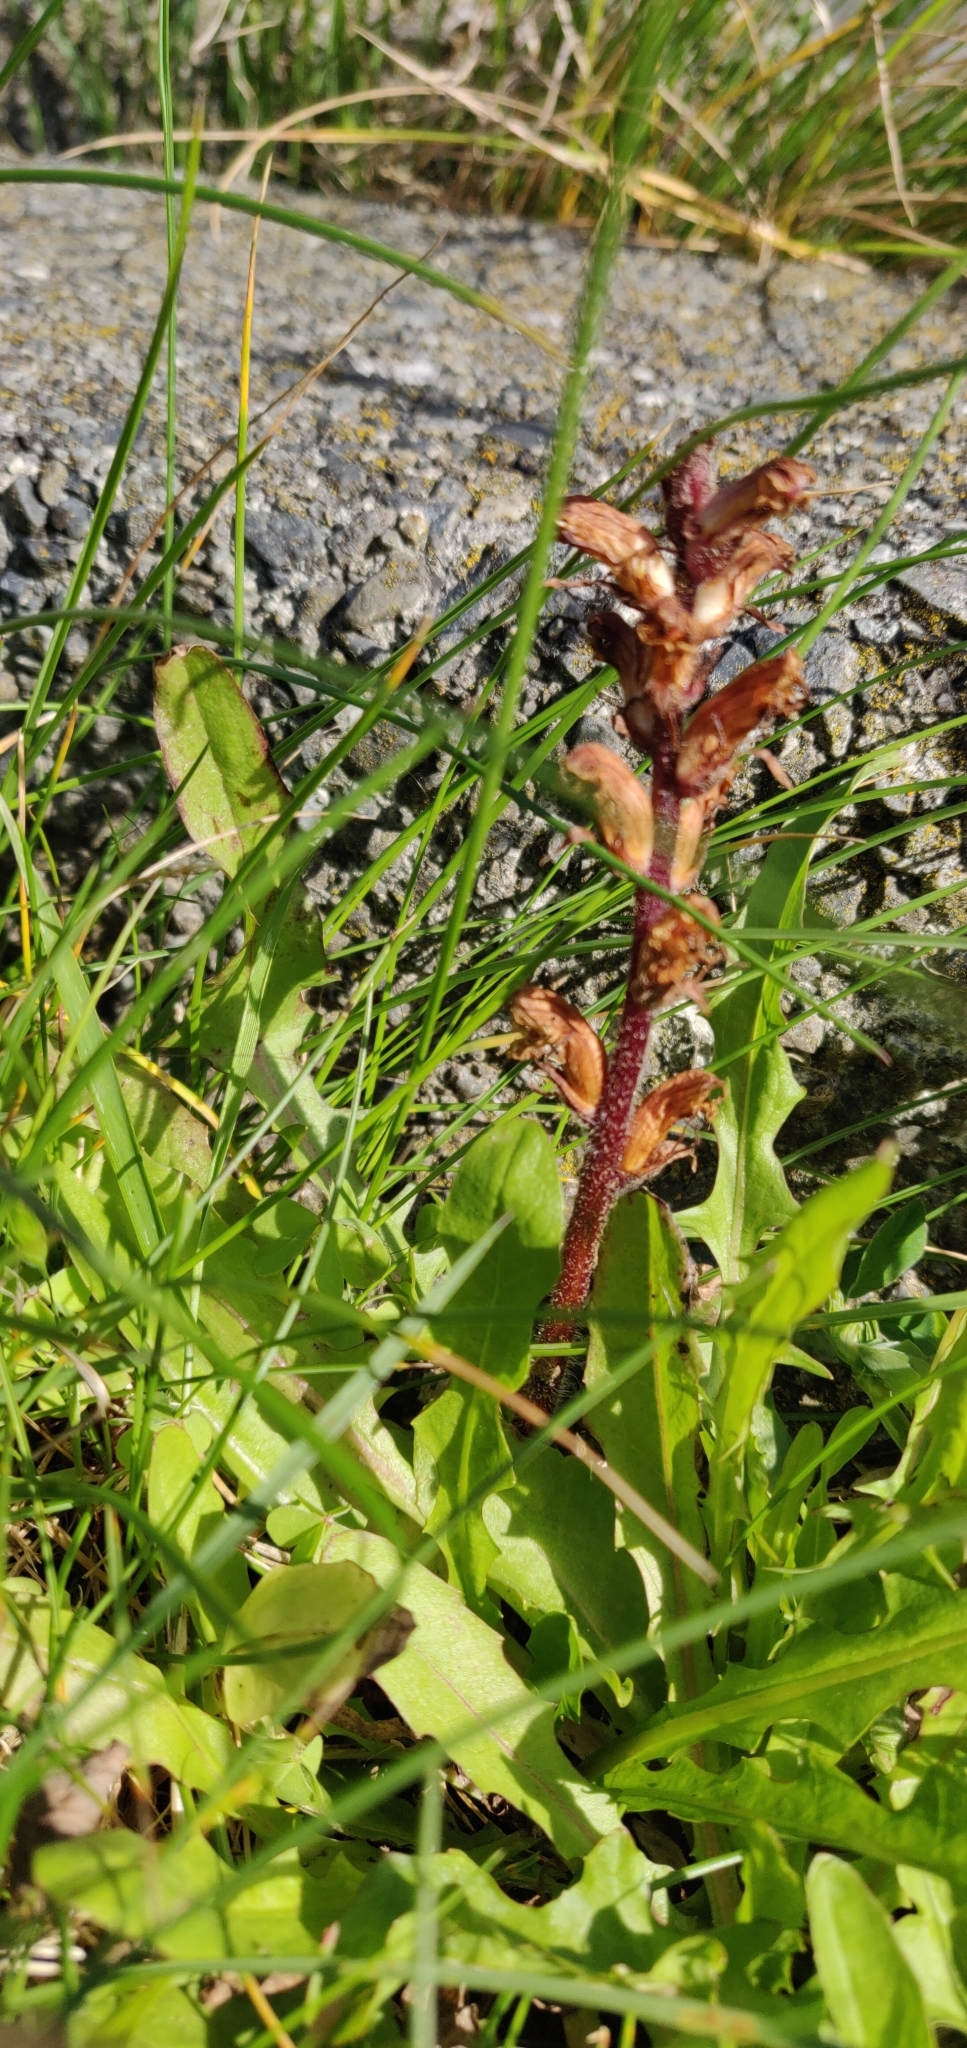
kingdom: Plantae
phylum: Tracheophyta
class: Magnoliopsida
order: Lamiales
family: Orobanchaceae
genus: Orobanche
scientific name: Orobanche minor
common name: Common broomrape
